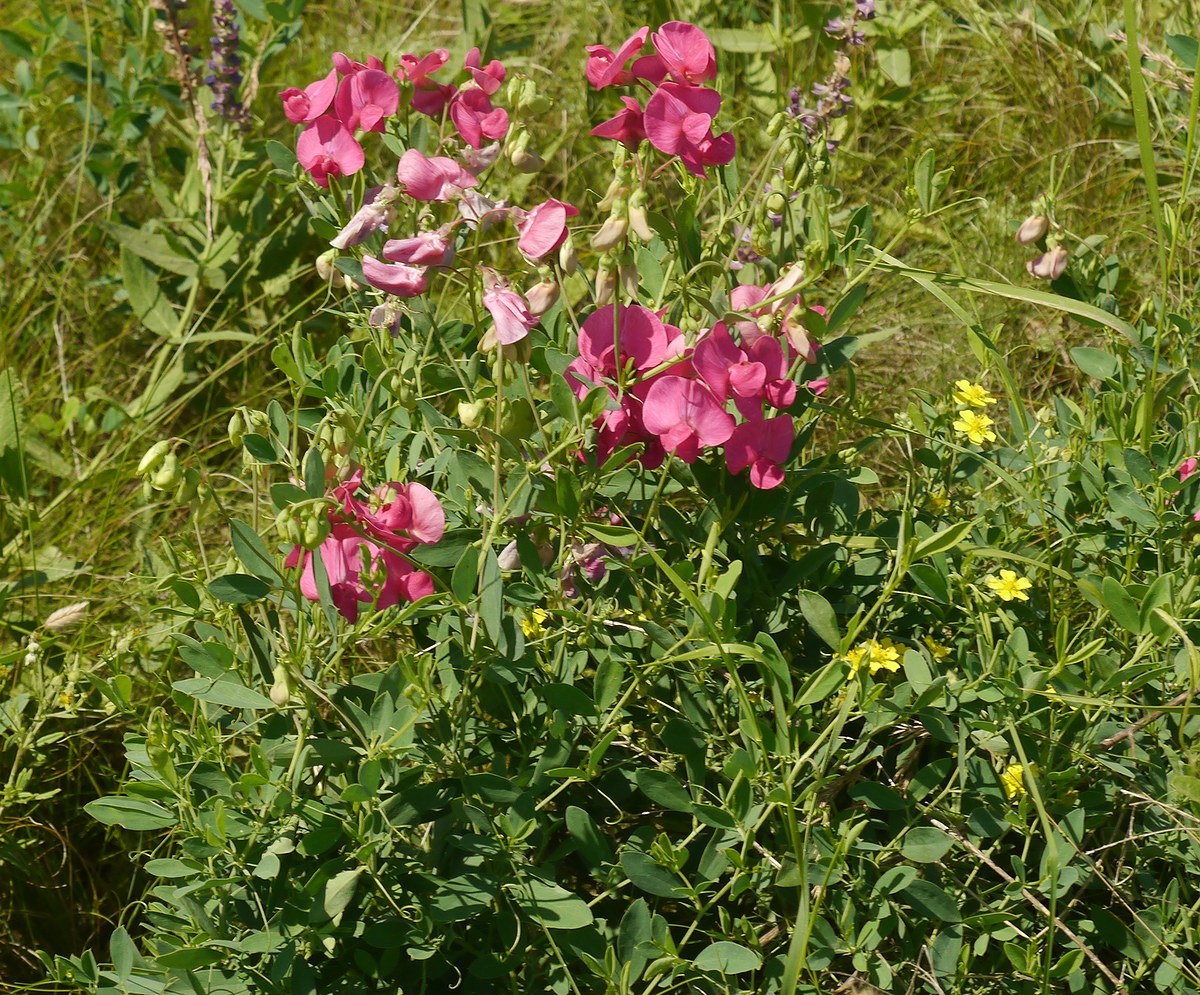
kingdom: Plantae
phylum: Tracheophyta
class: Magnoliopsida
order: Fabales
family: Fabaceae
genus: Lathyrus
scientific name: Lathyrus tuberosus
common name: Tuberous pea
